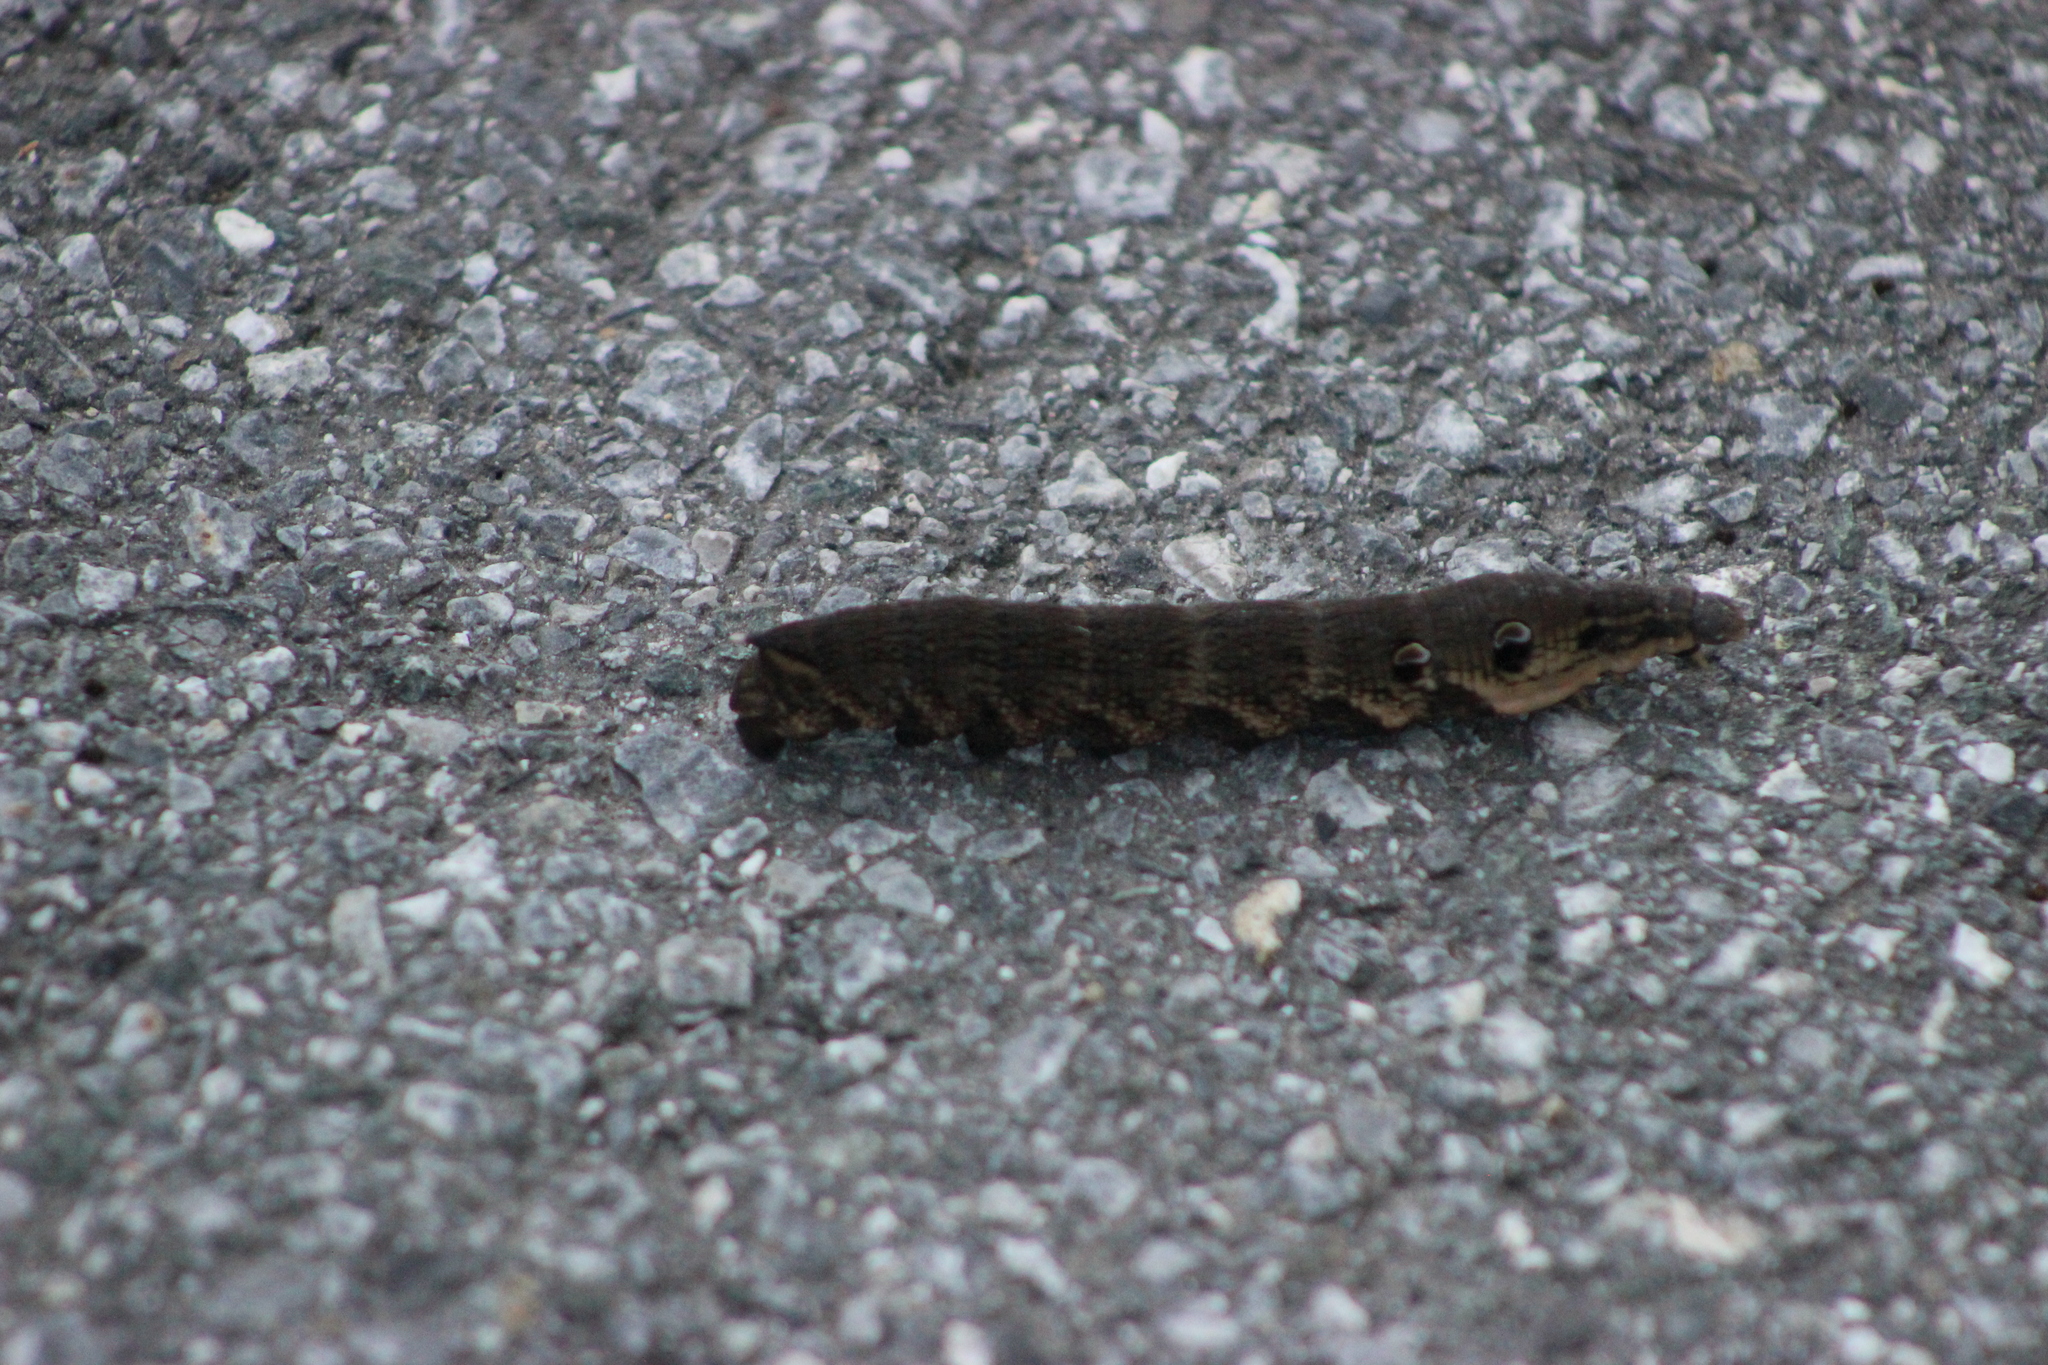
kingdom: Animalia
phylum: Arthropoda
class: Insecta
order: Lepidoptera
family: Sphingidae
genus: Deilephila
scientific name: Deilephila elpenor
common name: Elephant hawk-moth
